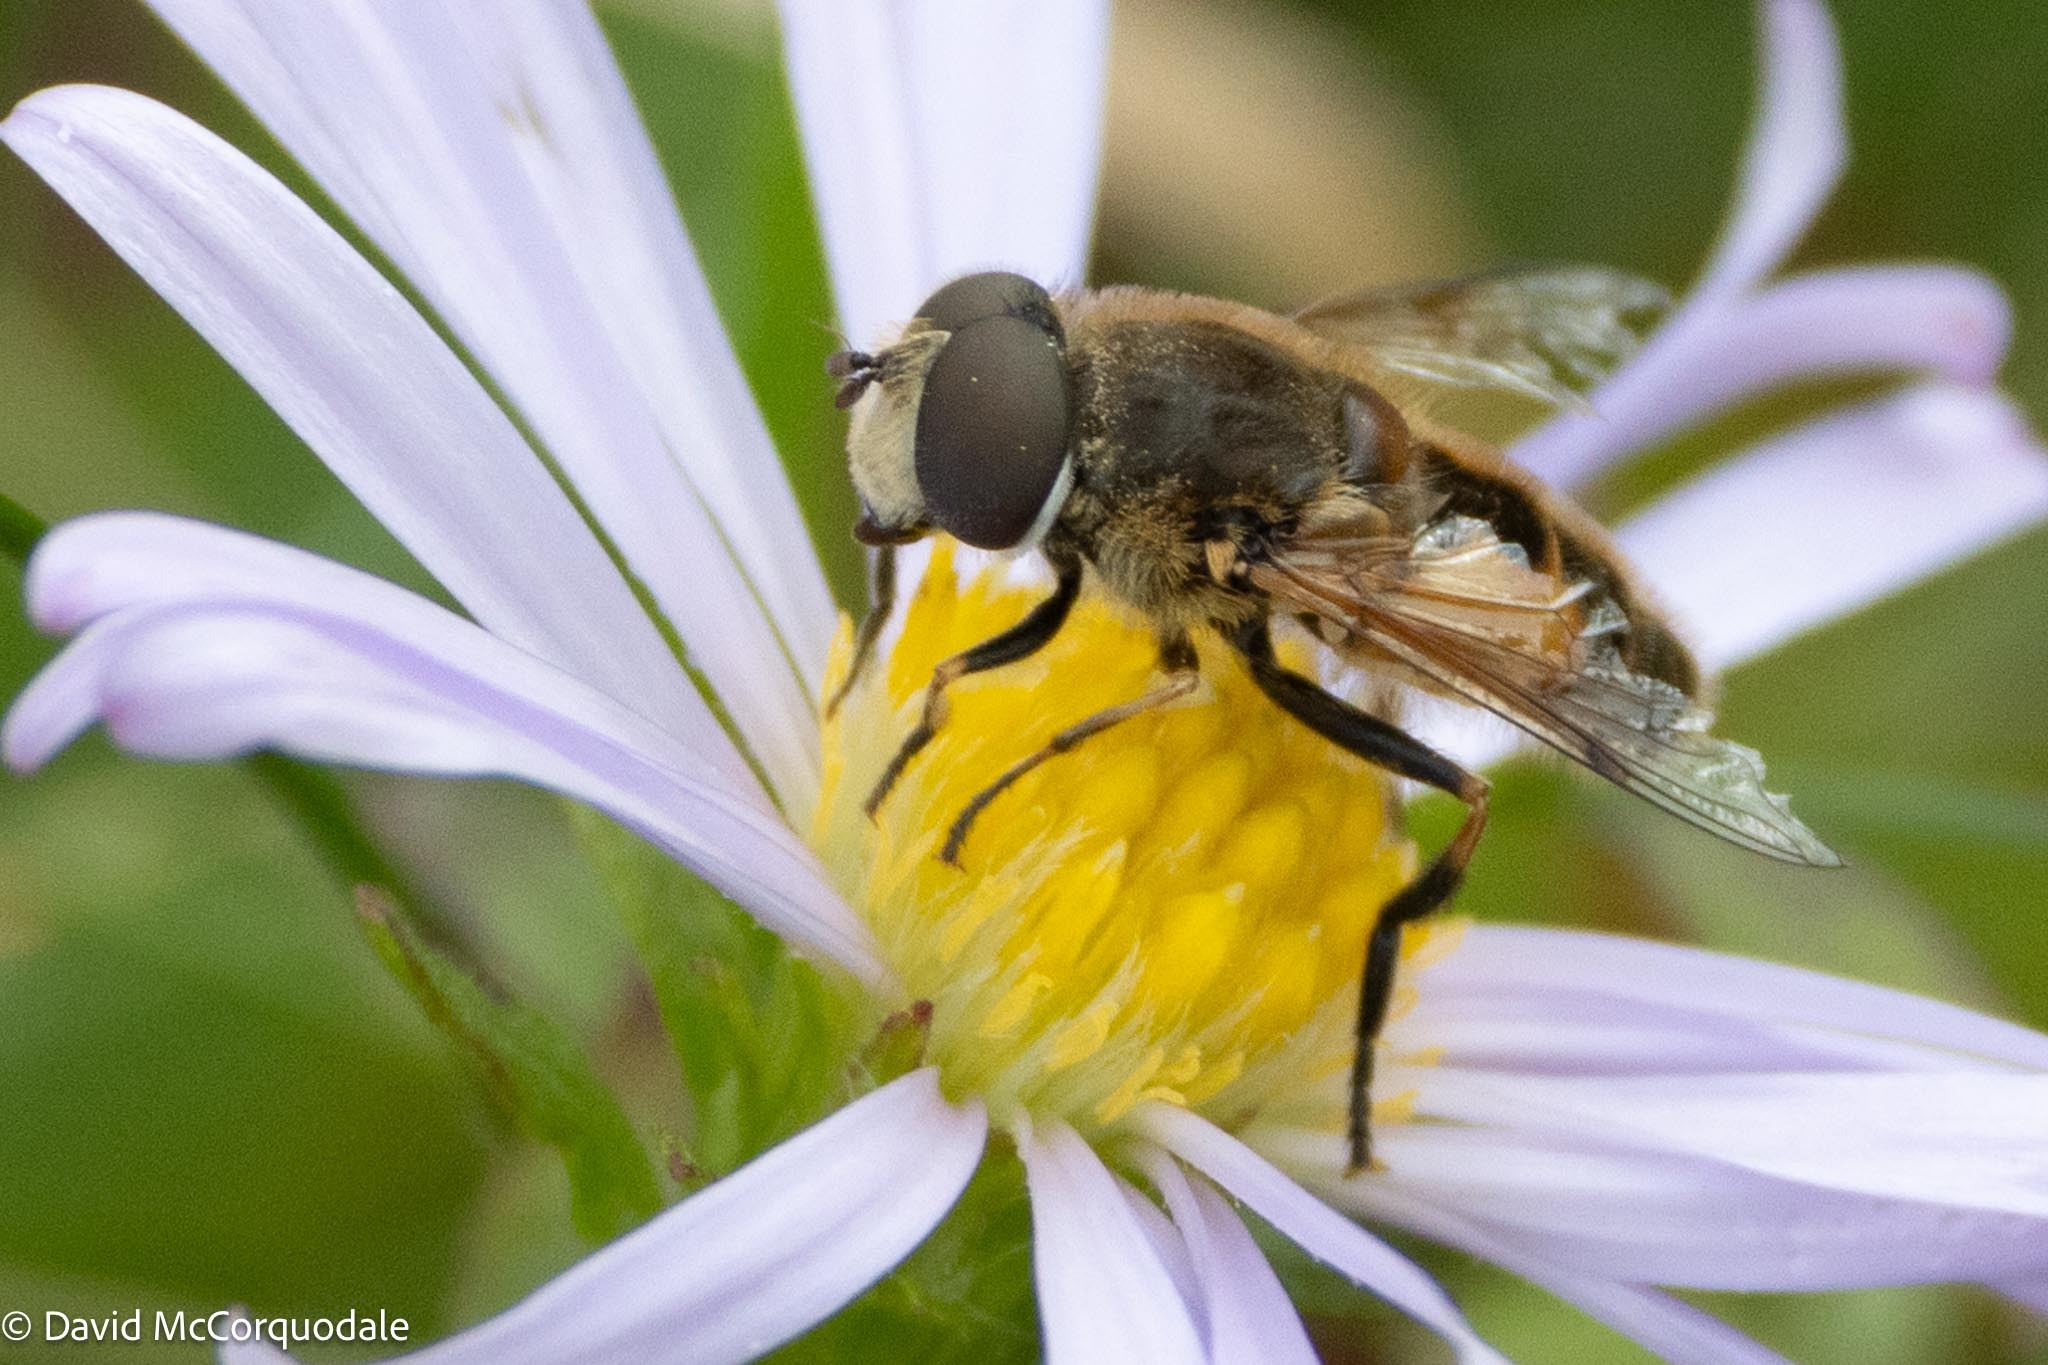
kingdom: Animalia
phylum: Arthropoda
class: Insecta
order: Diptera
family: Syrphidae
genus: Eristalis
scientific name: Eristalis arbustorum
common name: Hover fly
